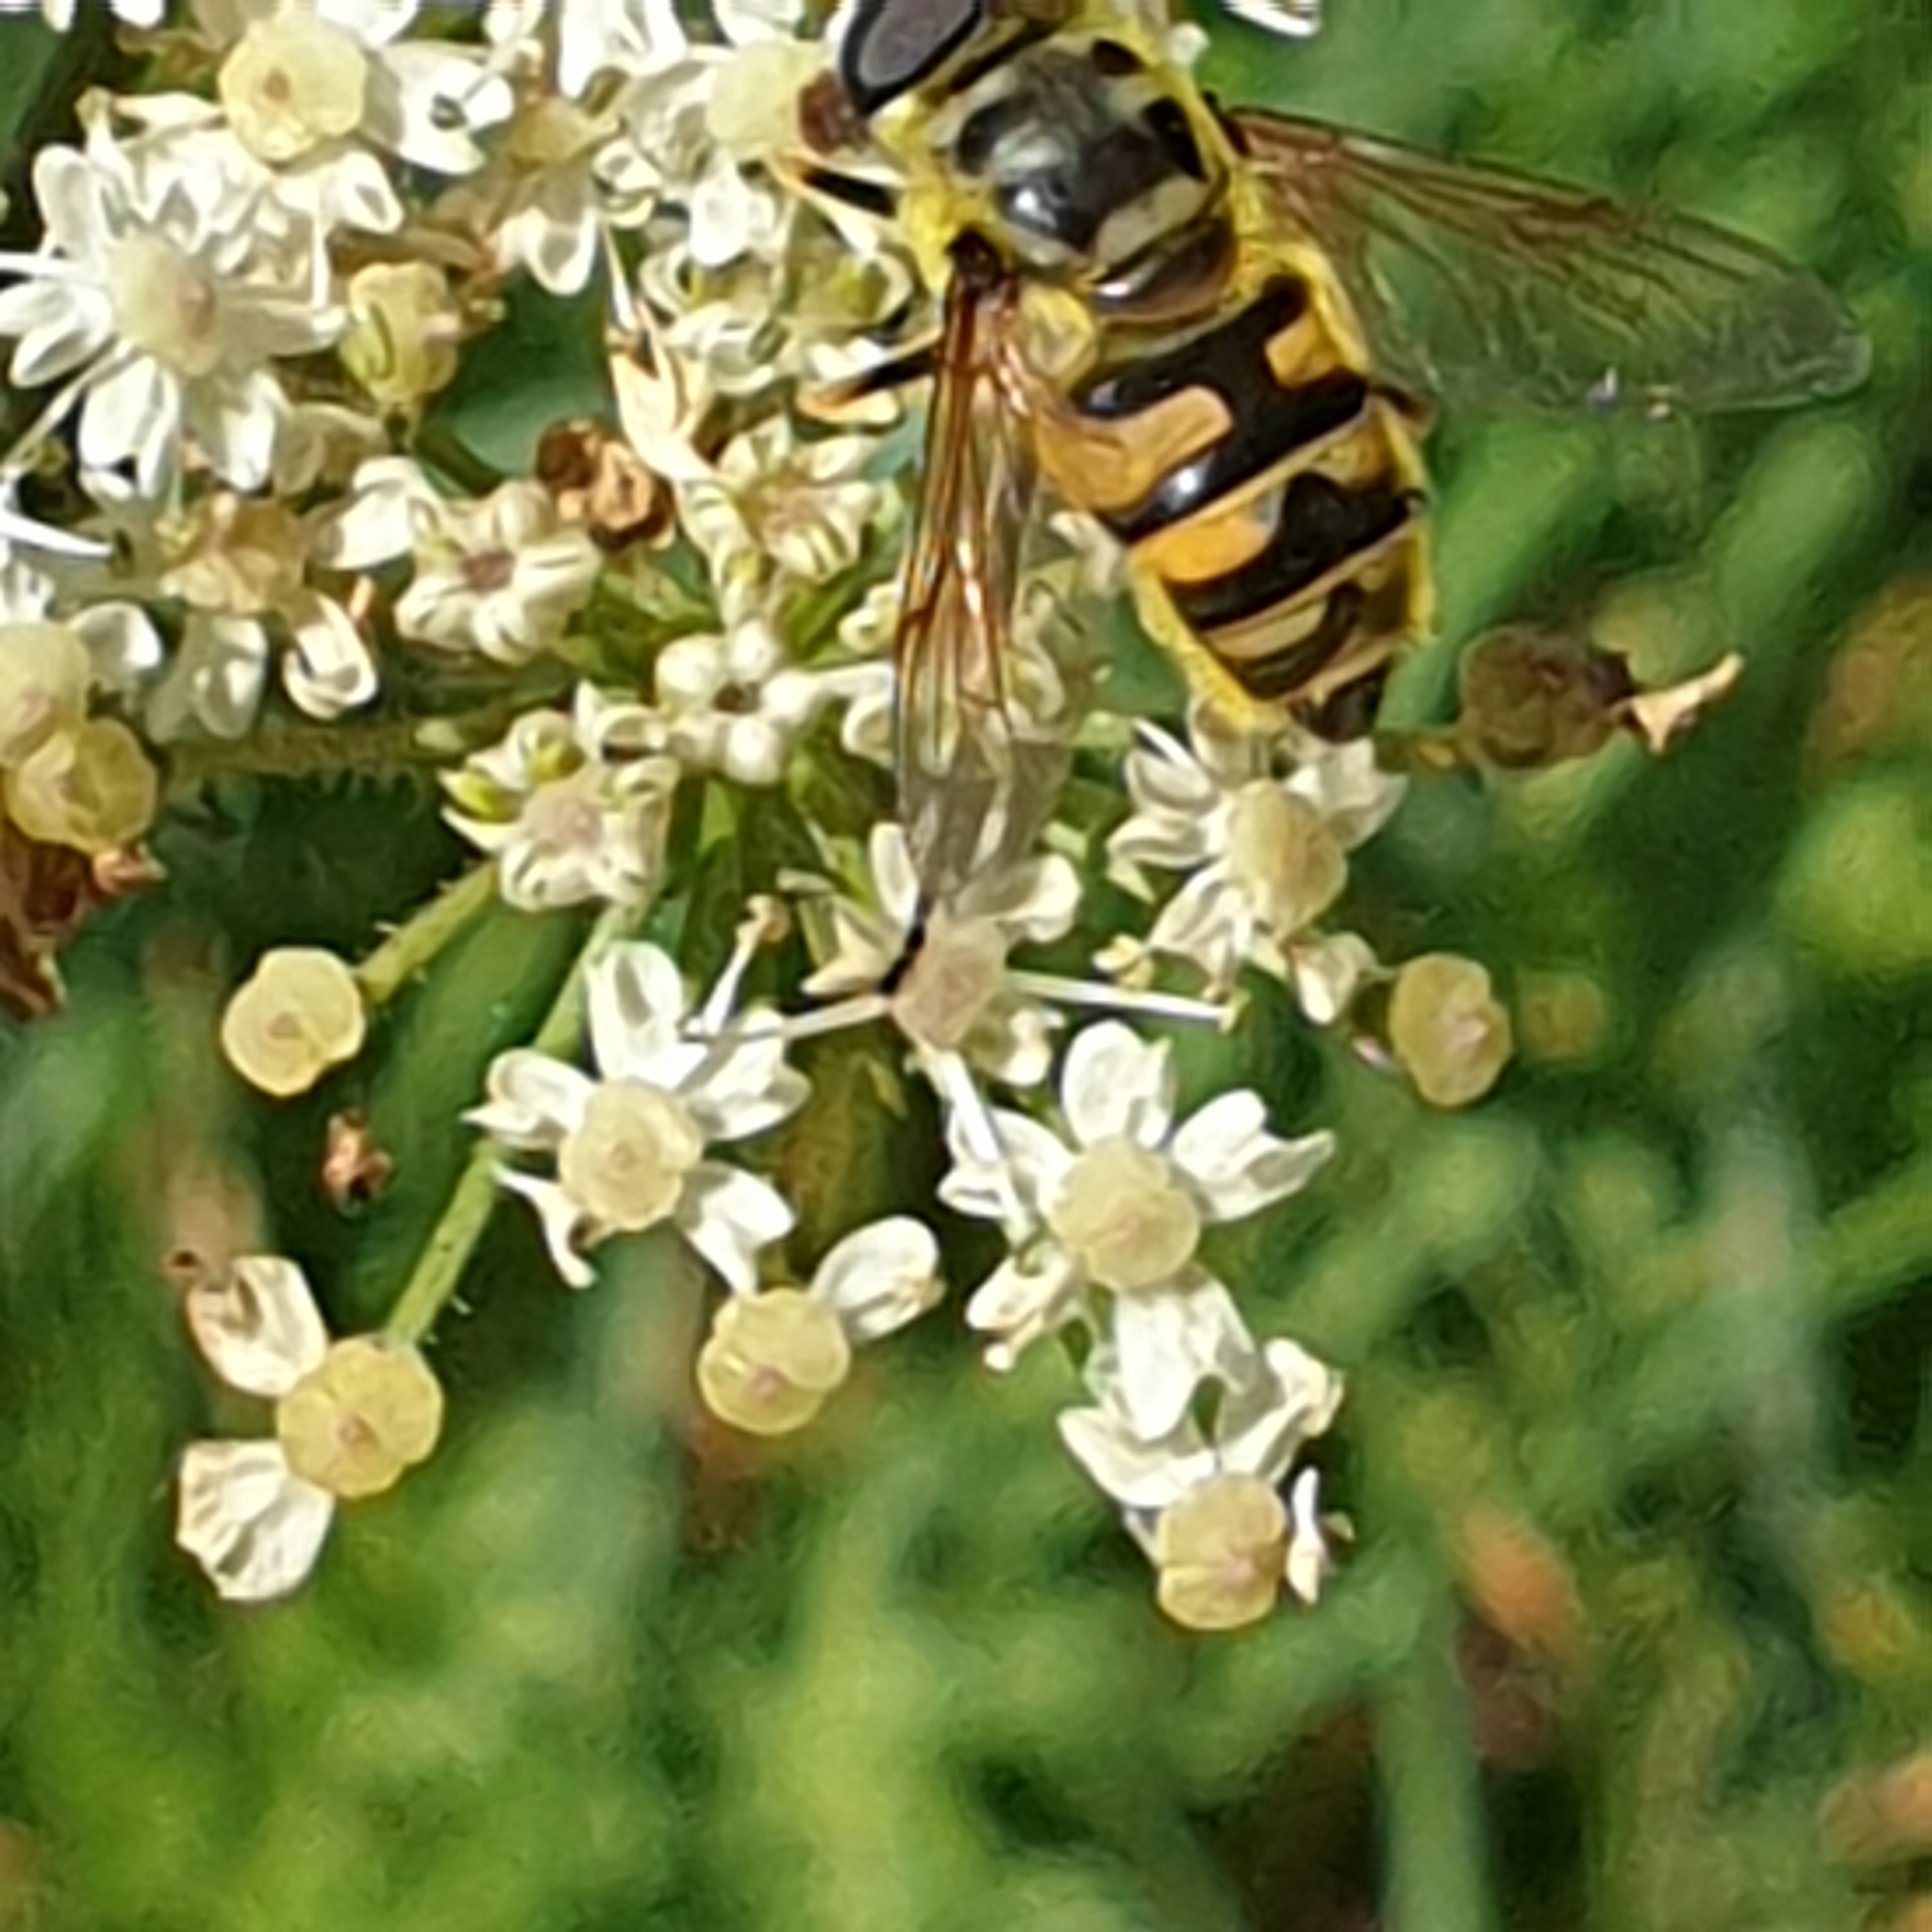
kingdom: Animalia
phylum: Arthropoda
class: Insecta
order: Diptera
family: Syrphidae
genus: Myathropa
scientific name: Myathropa florea
